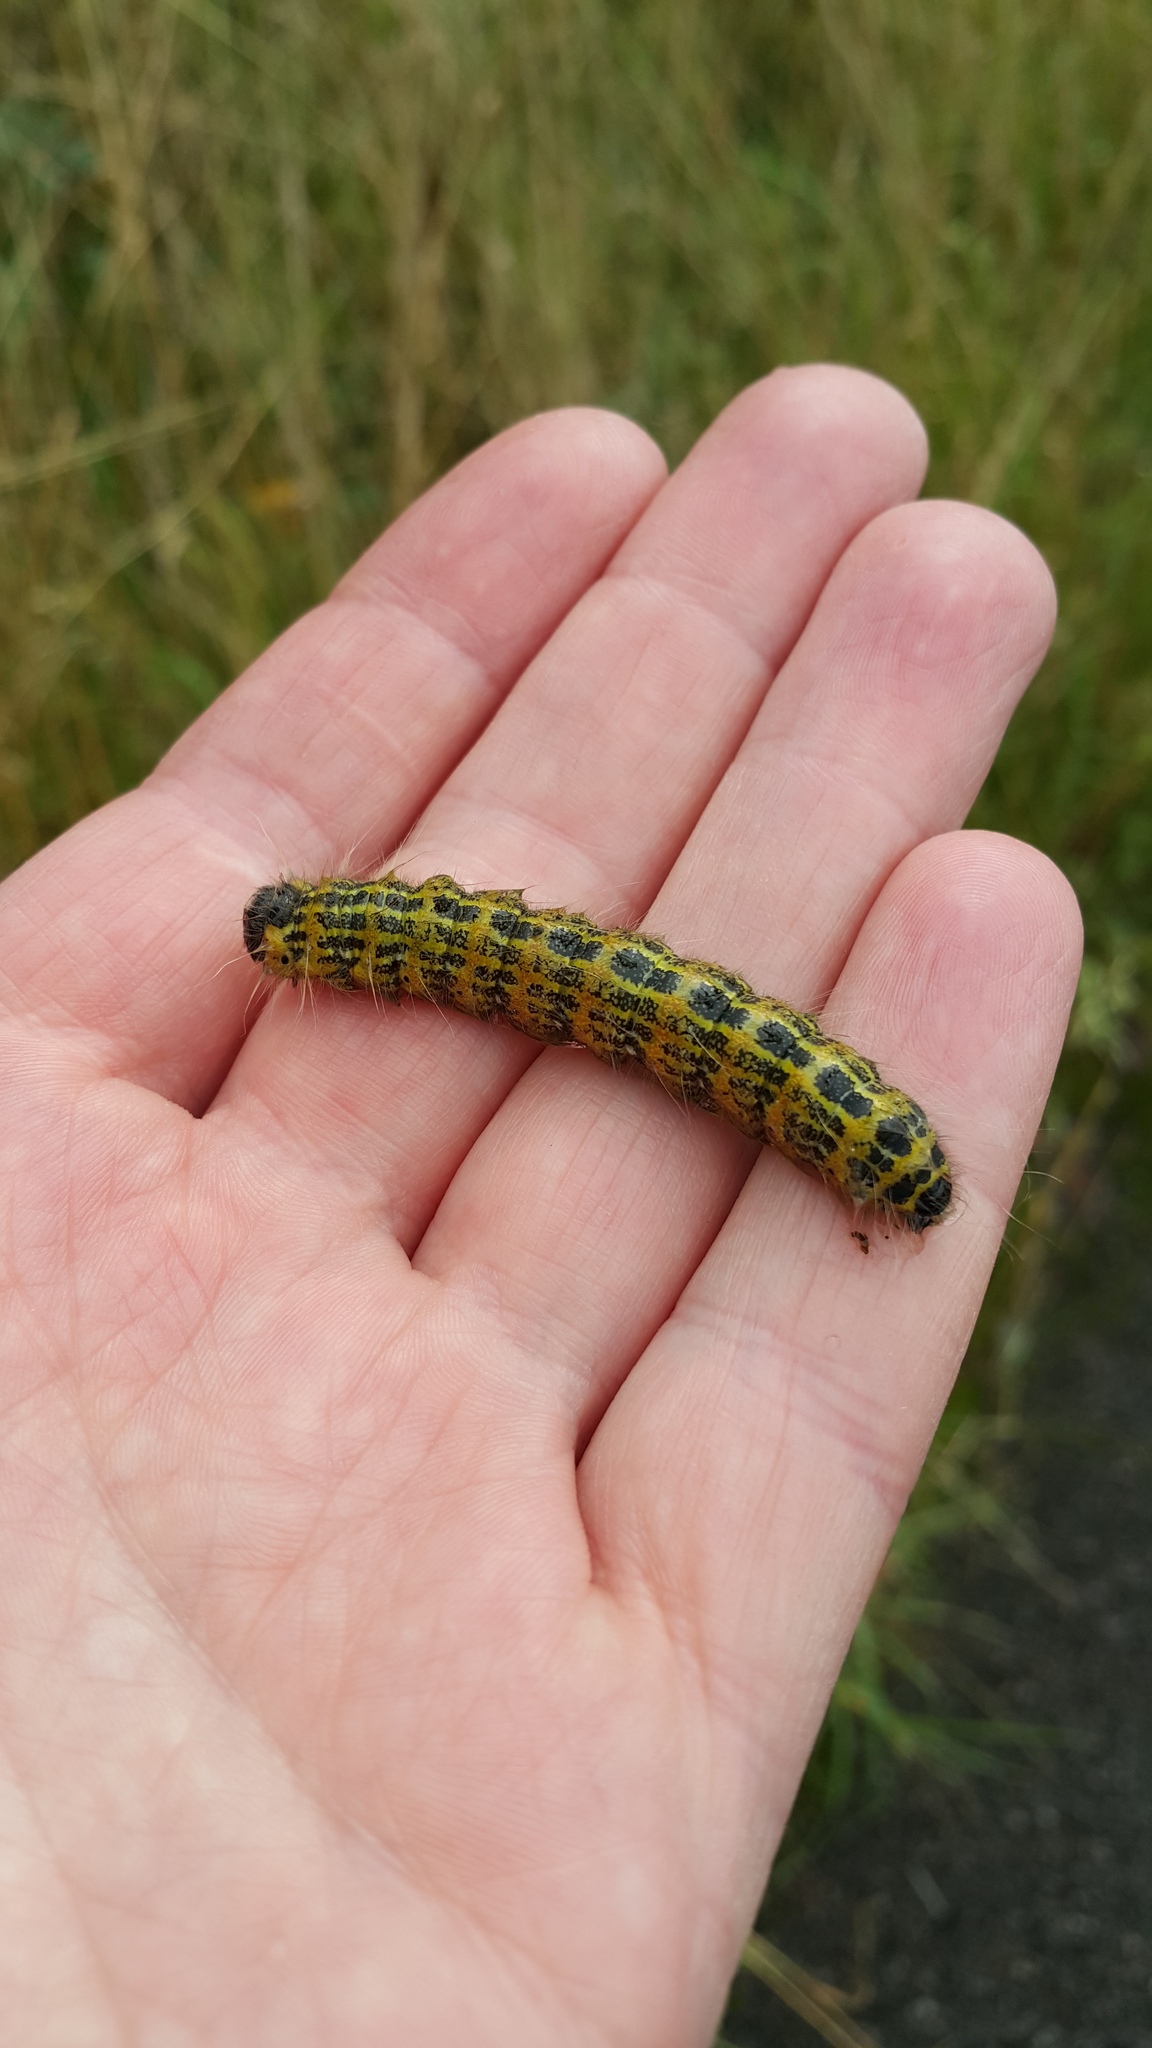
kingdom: Animalia
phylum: Arthropoda
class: Insecta
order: Lepidoptera
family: Notodontidae
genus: Phalera
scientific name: Phalera bucephala
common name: Buff-tip
